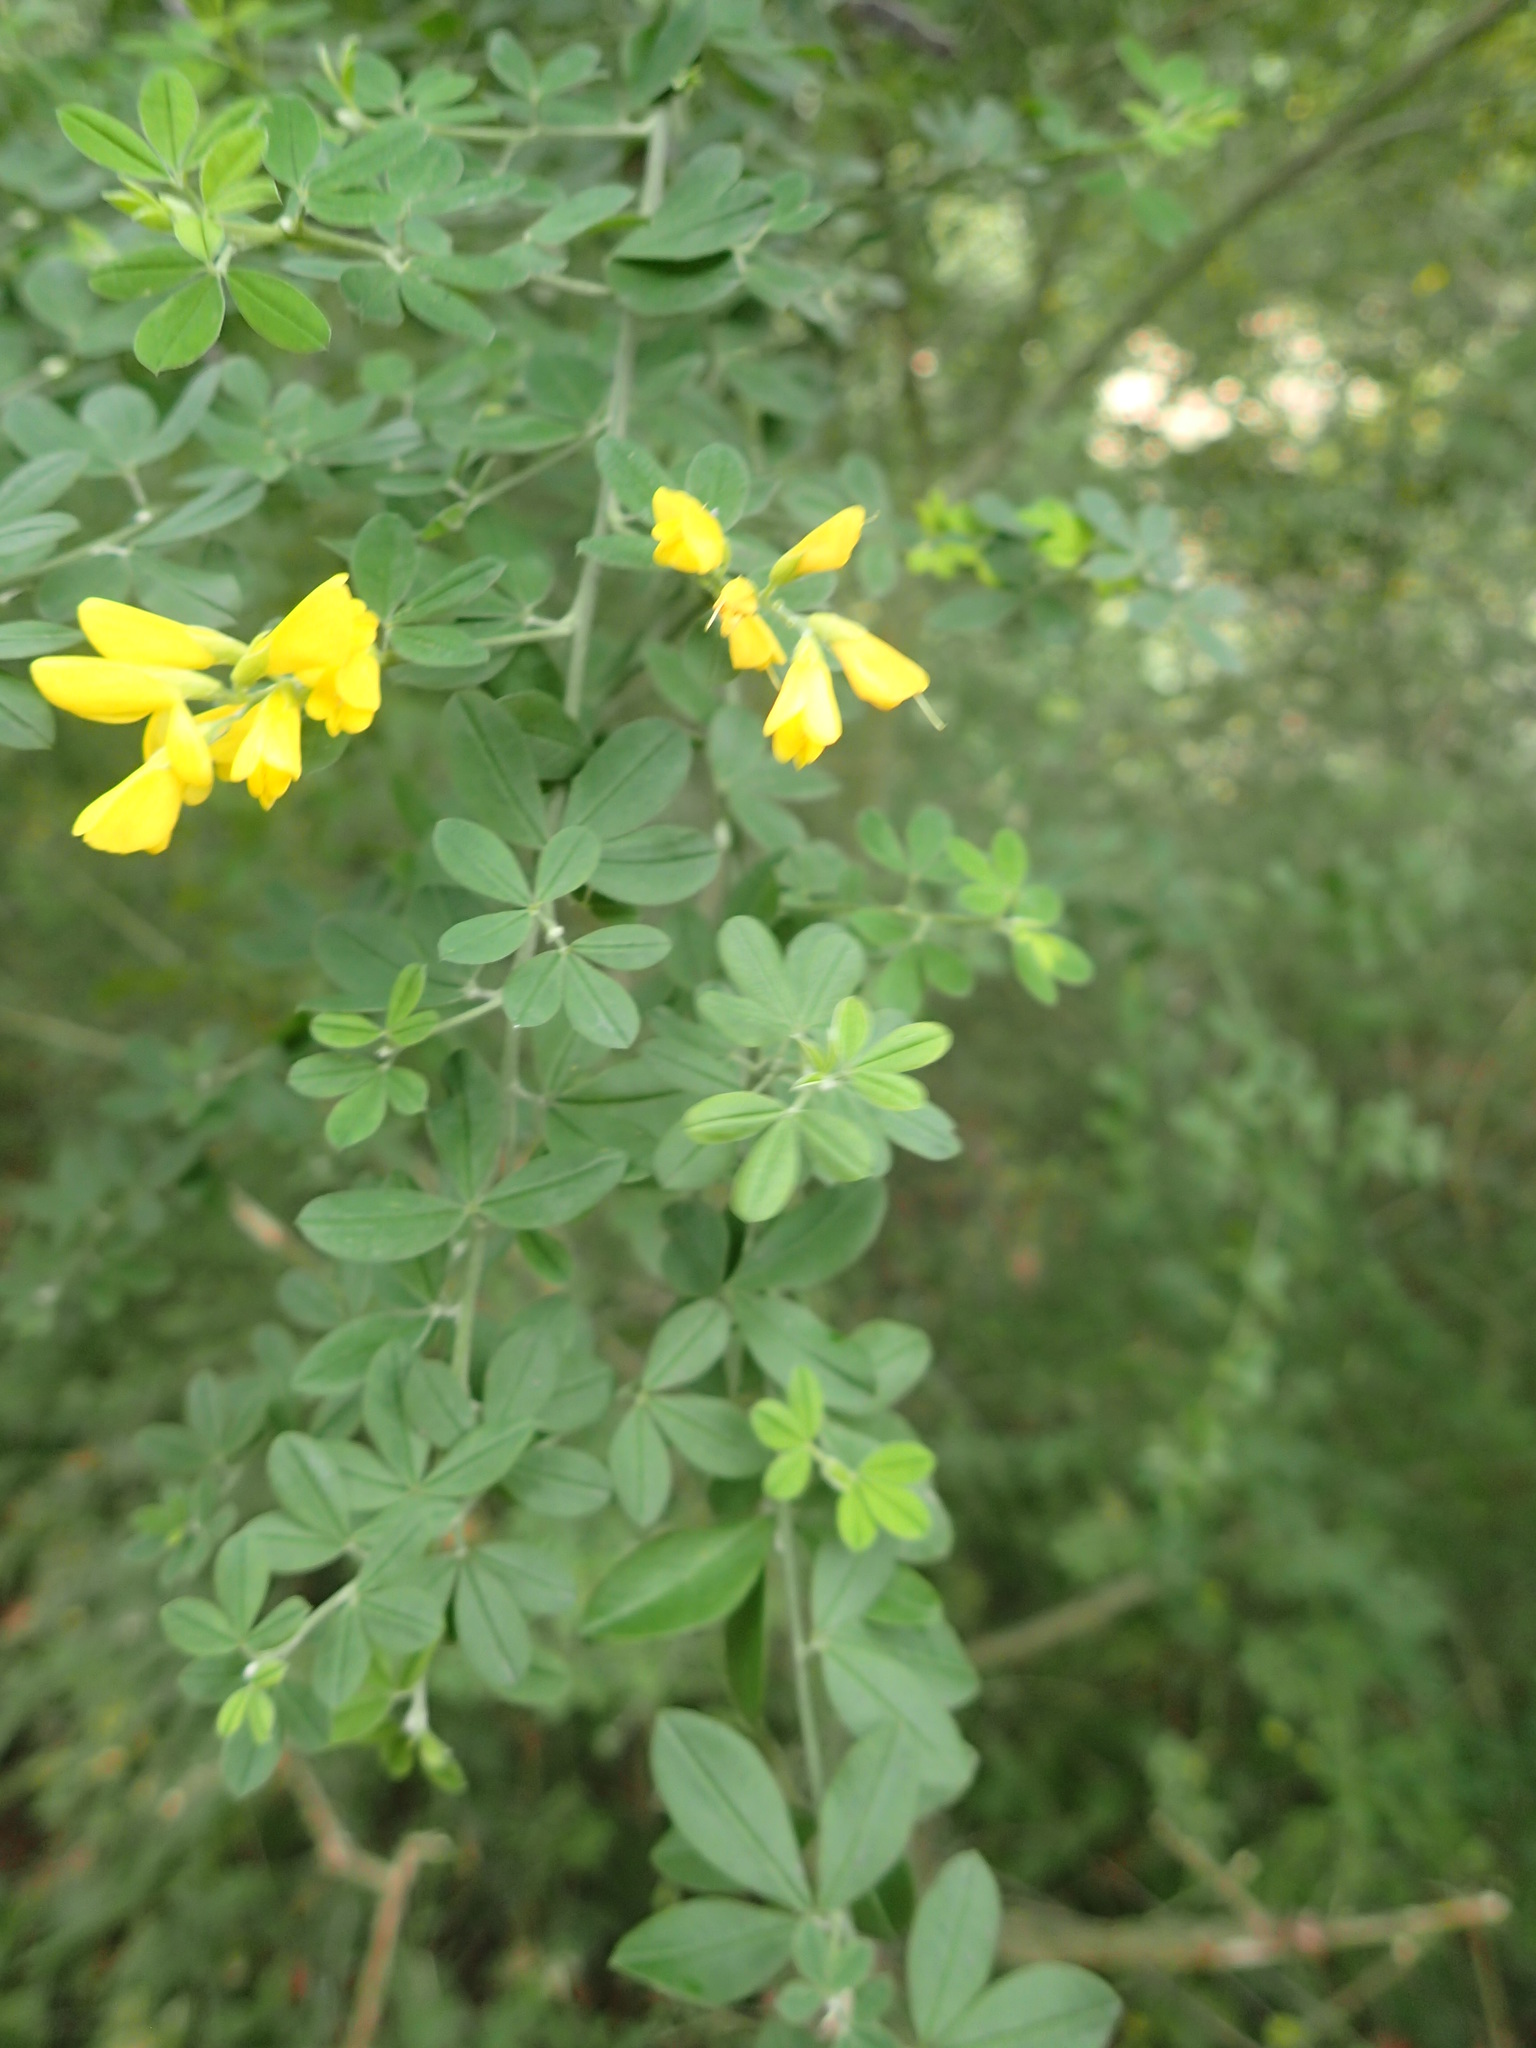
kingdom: Plantae
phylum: Tracheophyta
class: Magnoliopsida
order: Fabales
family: Fabaceae
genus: Genista
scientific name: Genista monspessulana
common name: Montpellier broom
